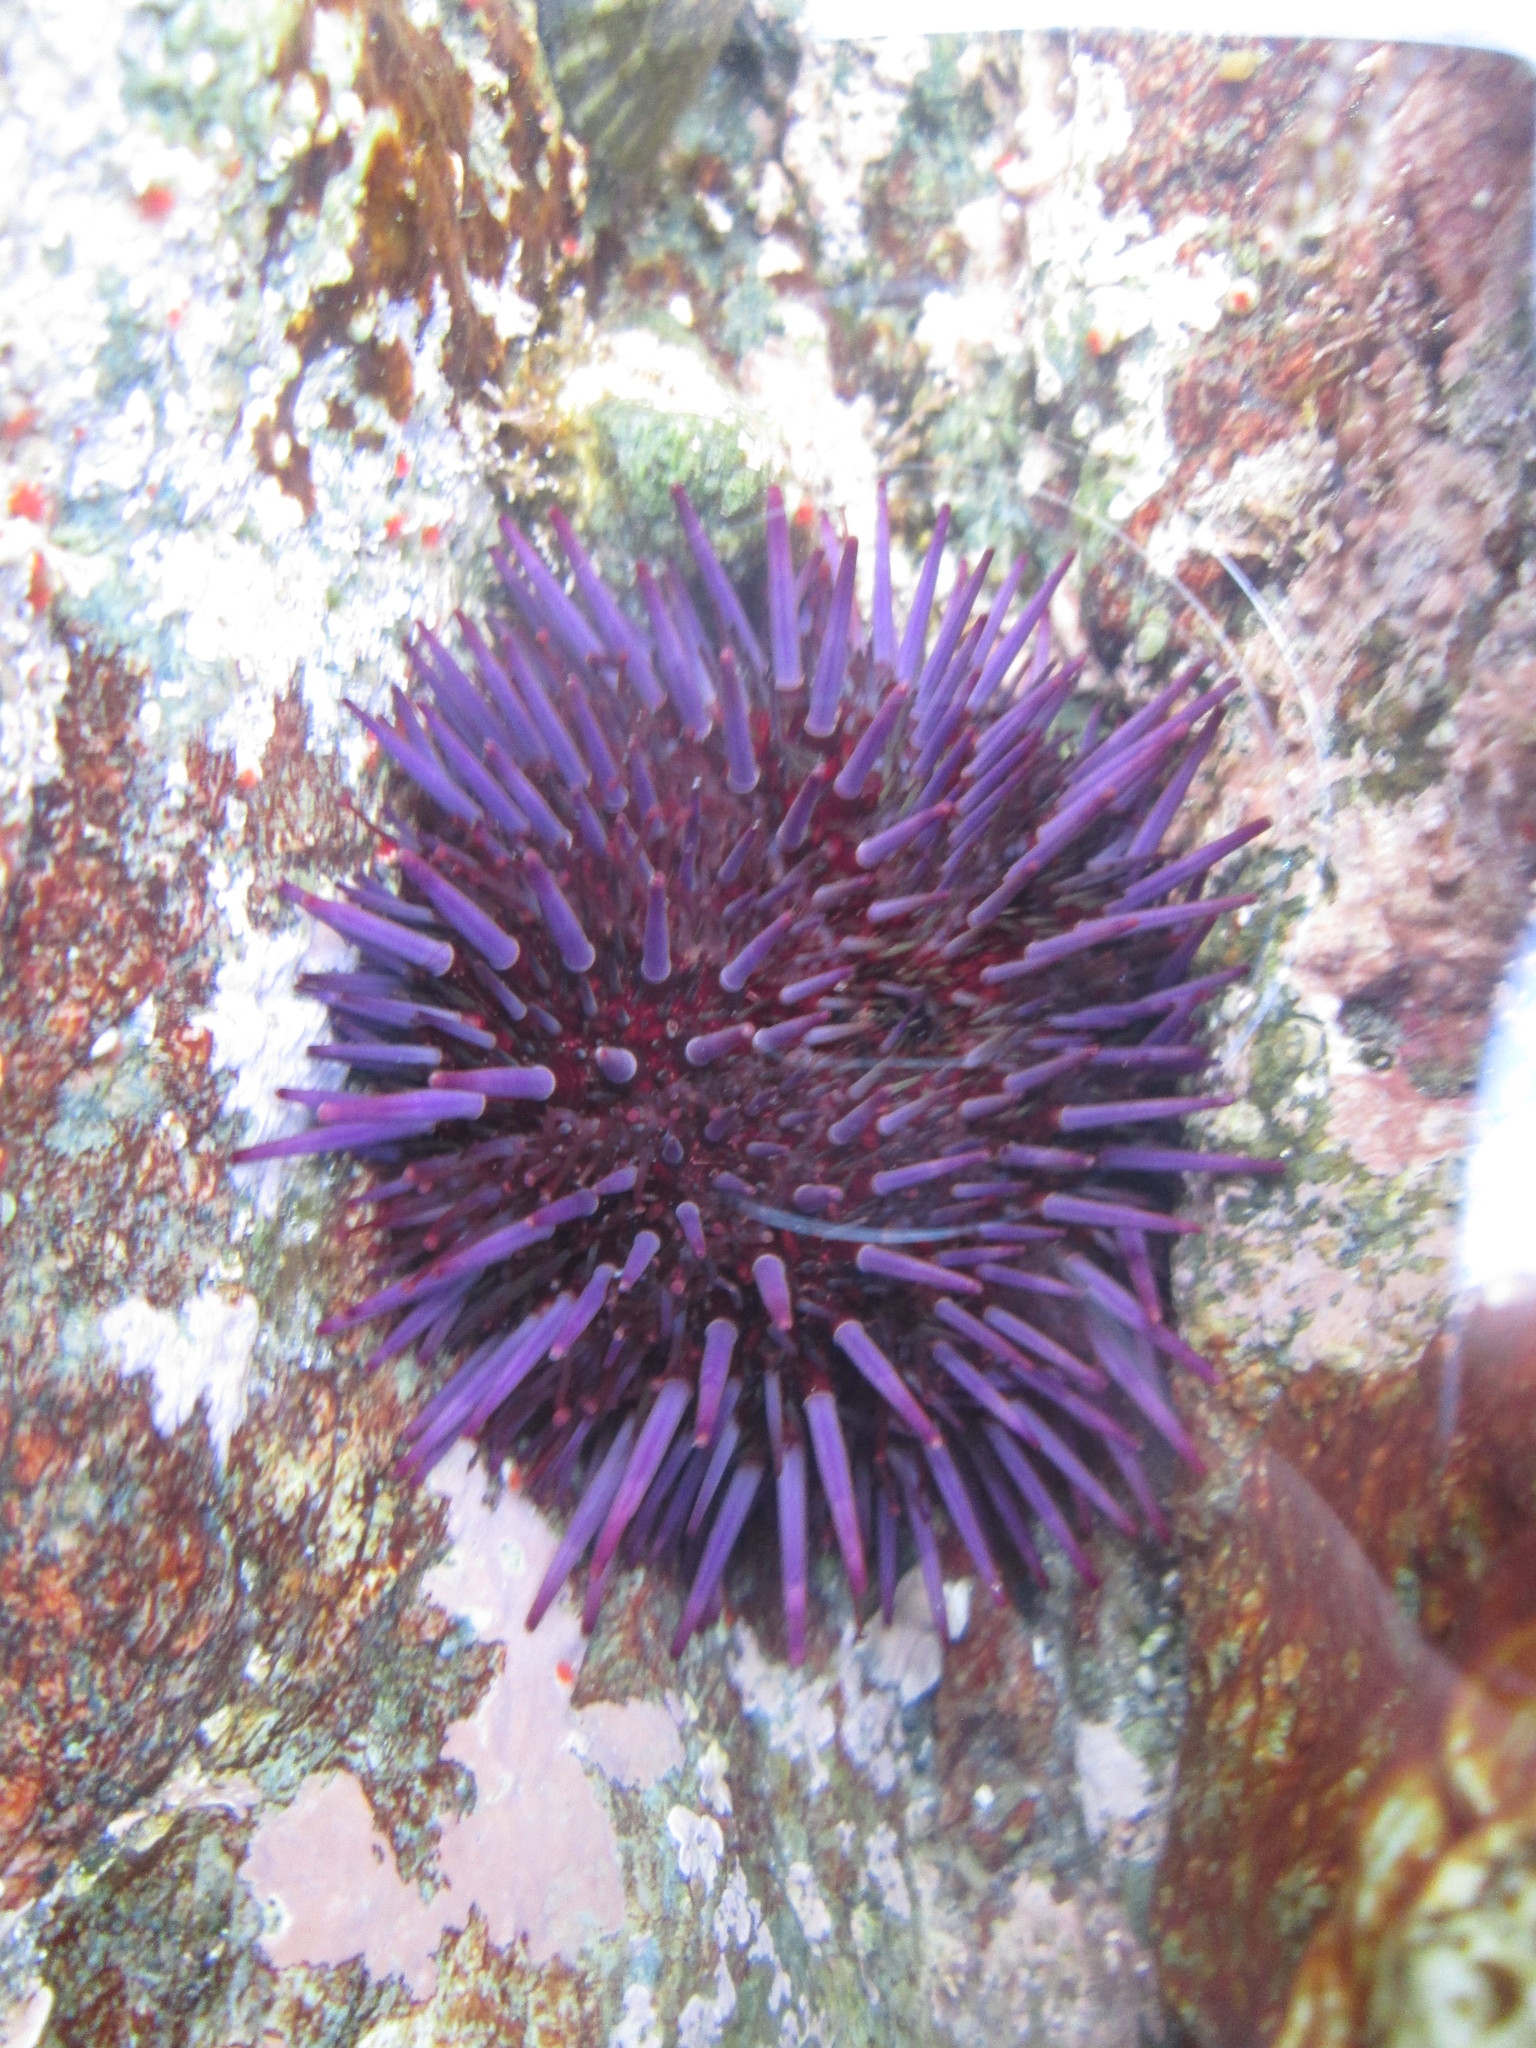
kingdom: Animalia
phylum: Echinodermata
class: Echinoidea
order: Camarodonta
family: Strongylocentrotidae
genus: Strongylocentrotus
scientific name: Strongylocentrotus purpuratus
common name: Purple sea urchin
